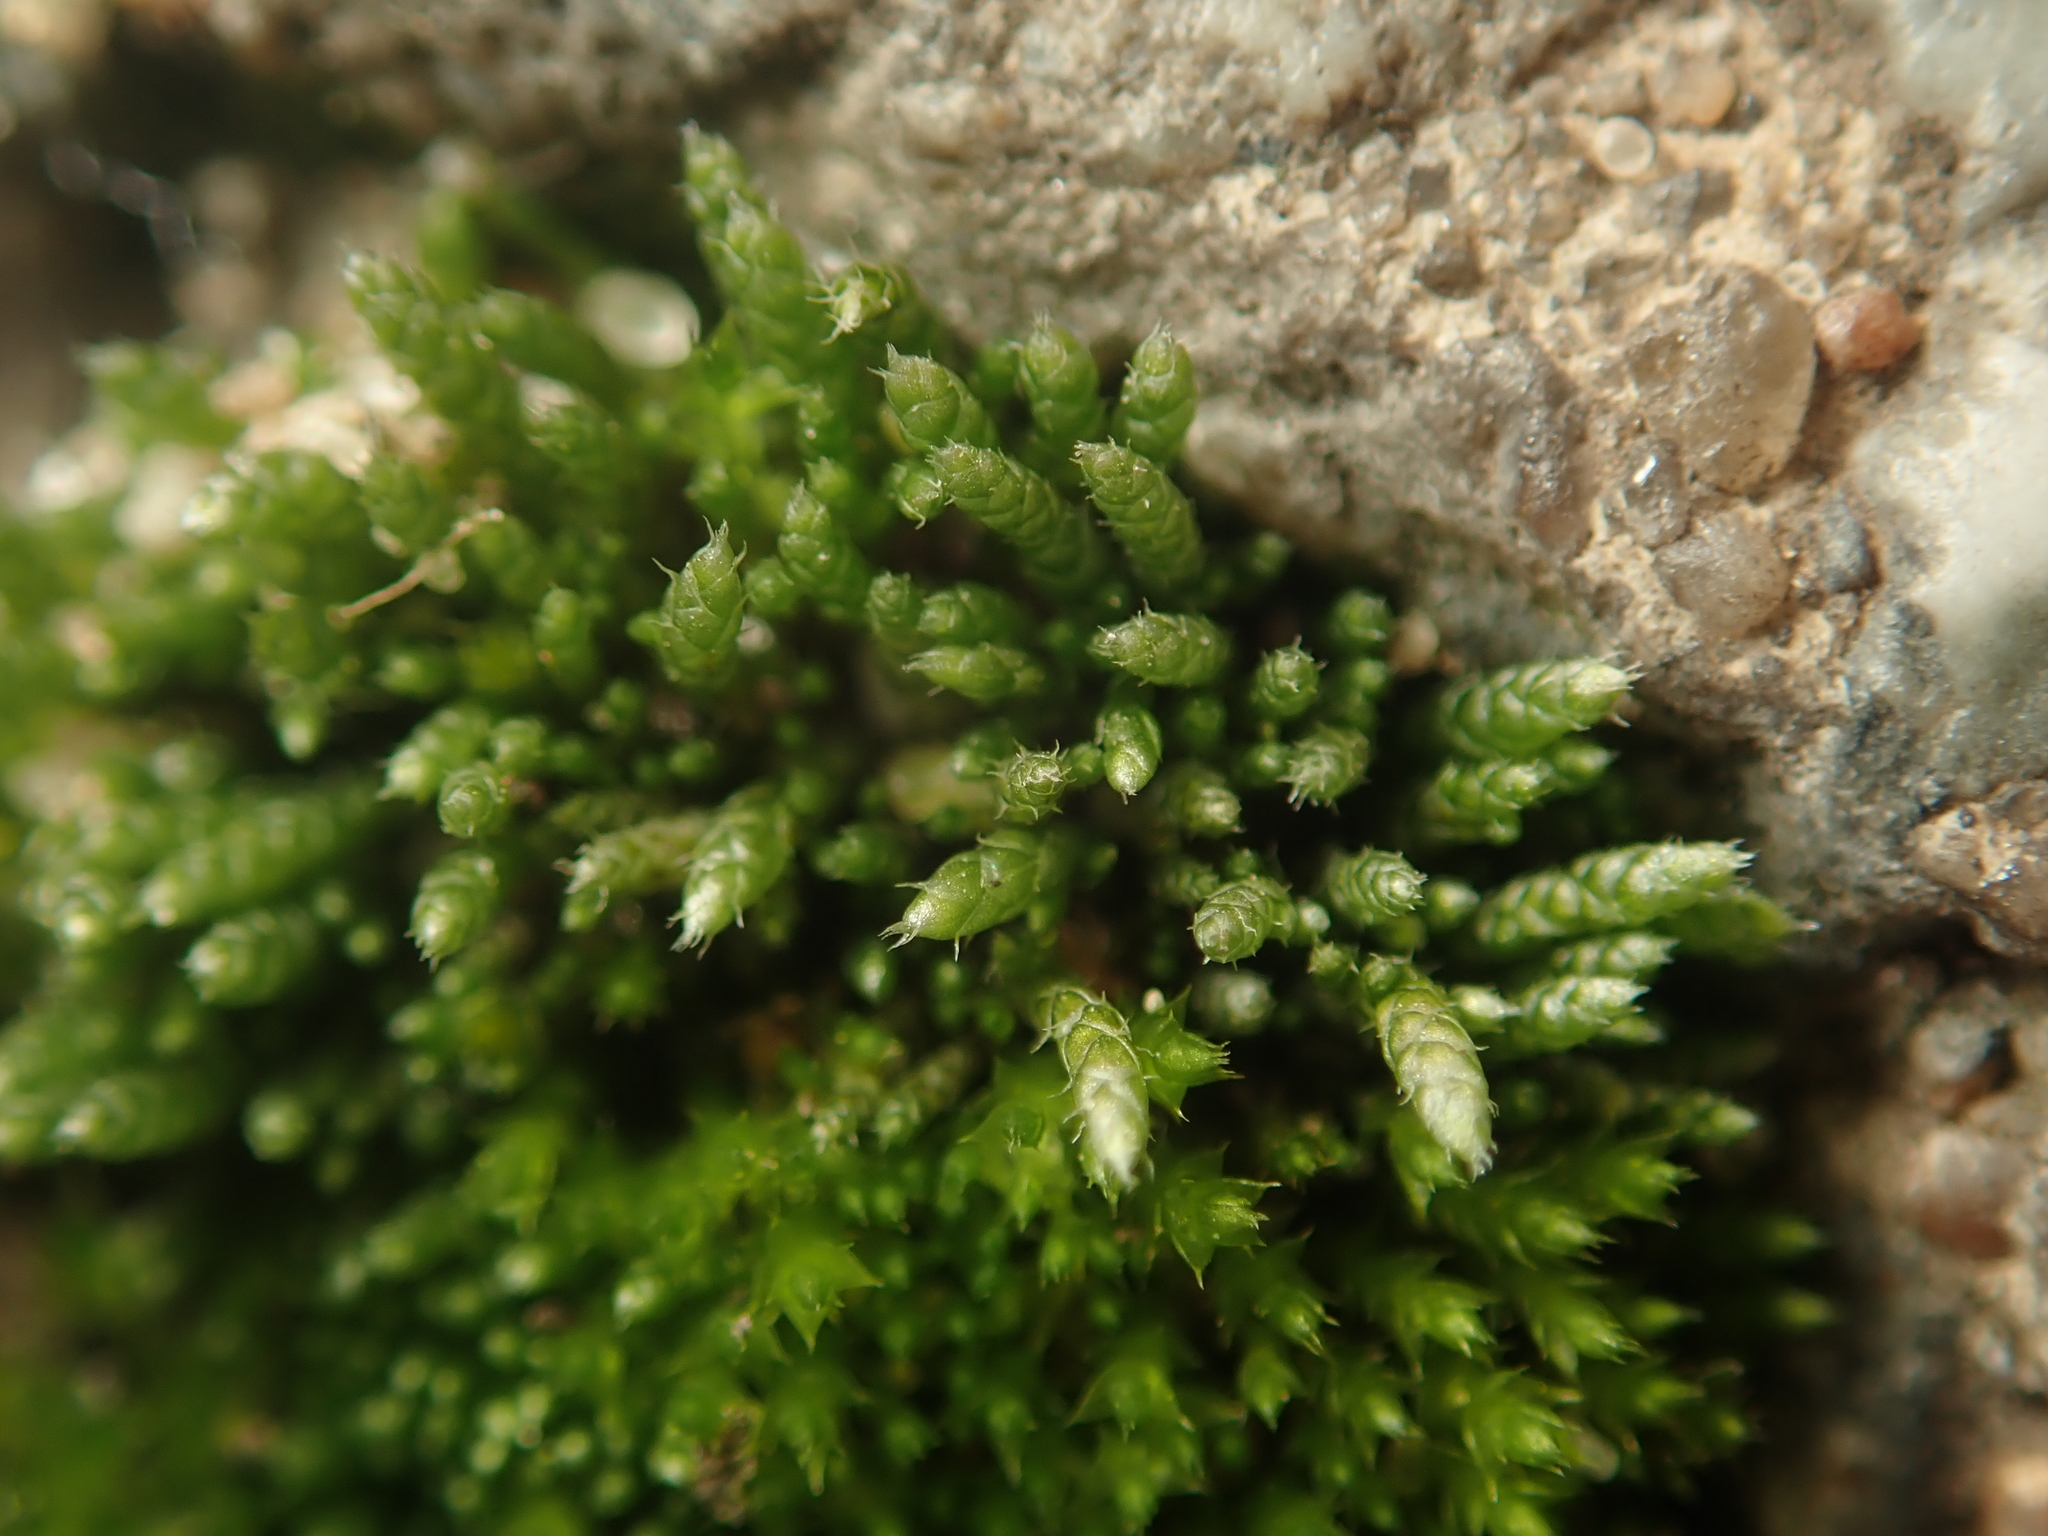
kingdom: Plantae
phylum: Bryophyta
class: Bryopsida
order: Bryales
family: Bryaceae
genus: Bryum
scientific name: Bryum argenteum
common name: Silver-moss
